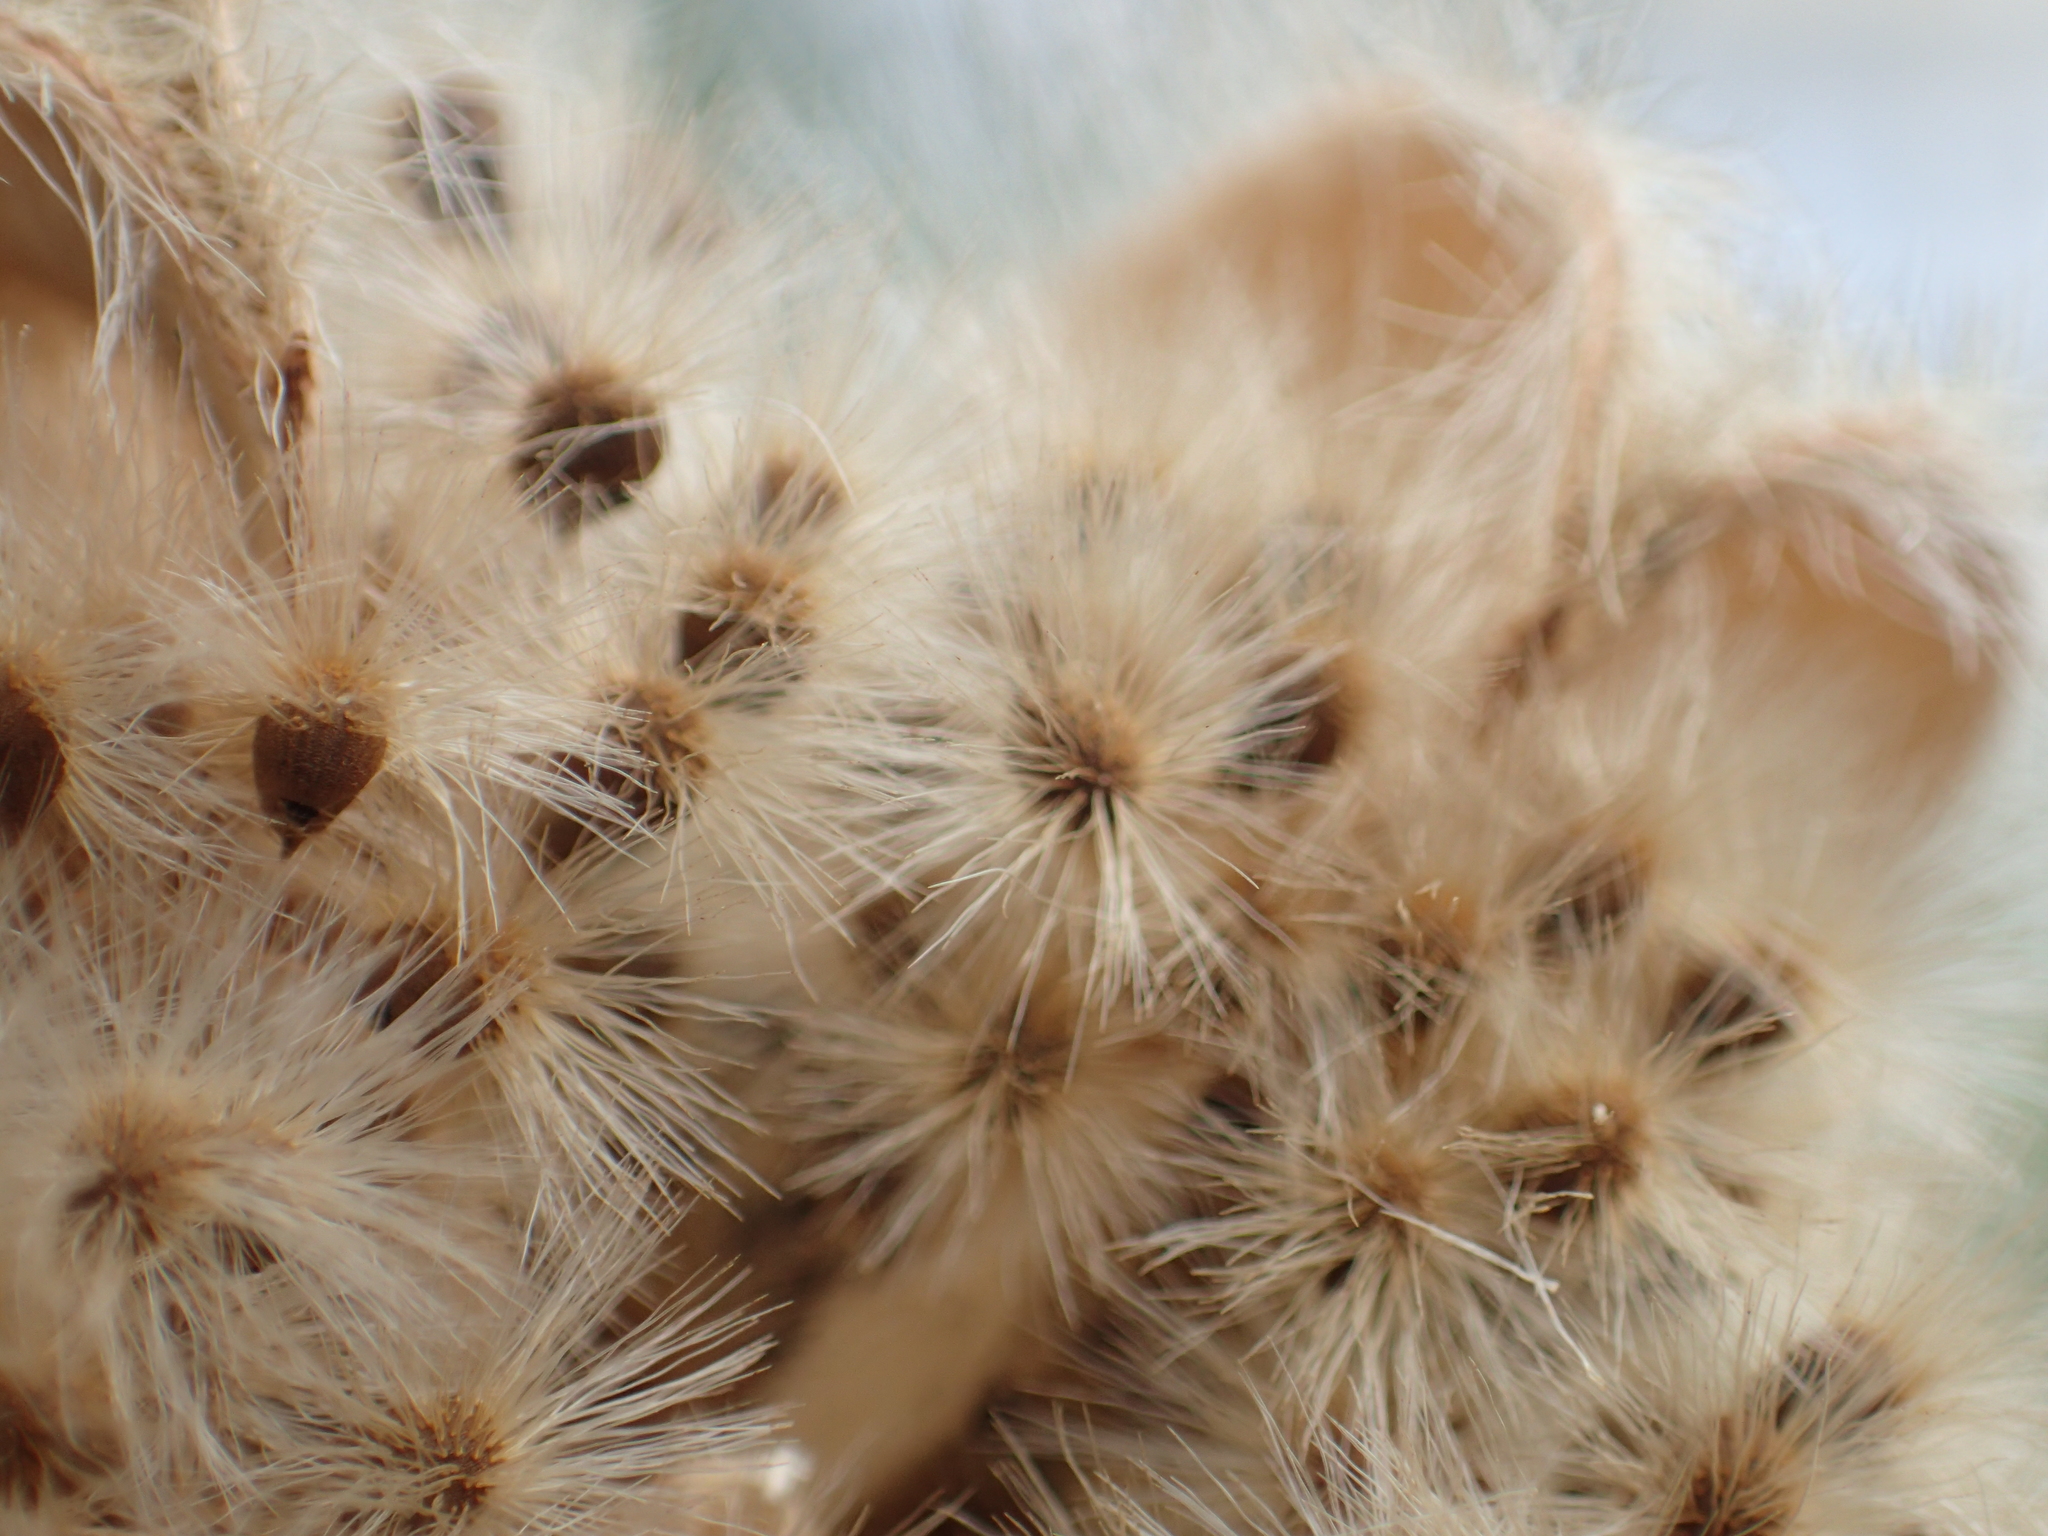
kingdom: Plantae
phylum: Tracheophyta
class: Magnoliopsida
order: Malvales
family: Malvaceae
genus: Hibiscus
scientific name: Hibiscus taiwanensis
